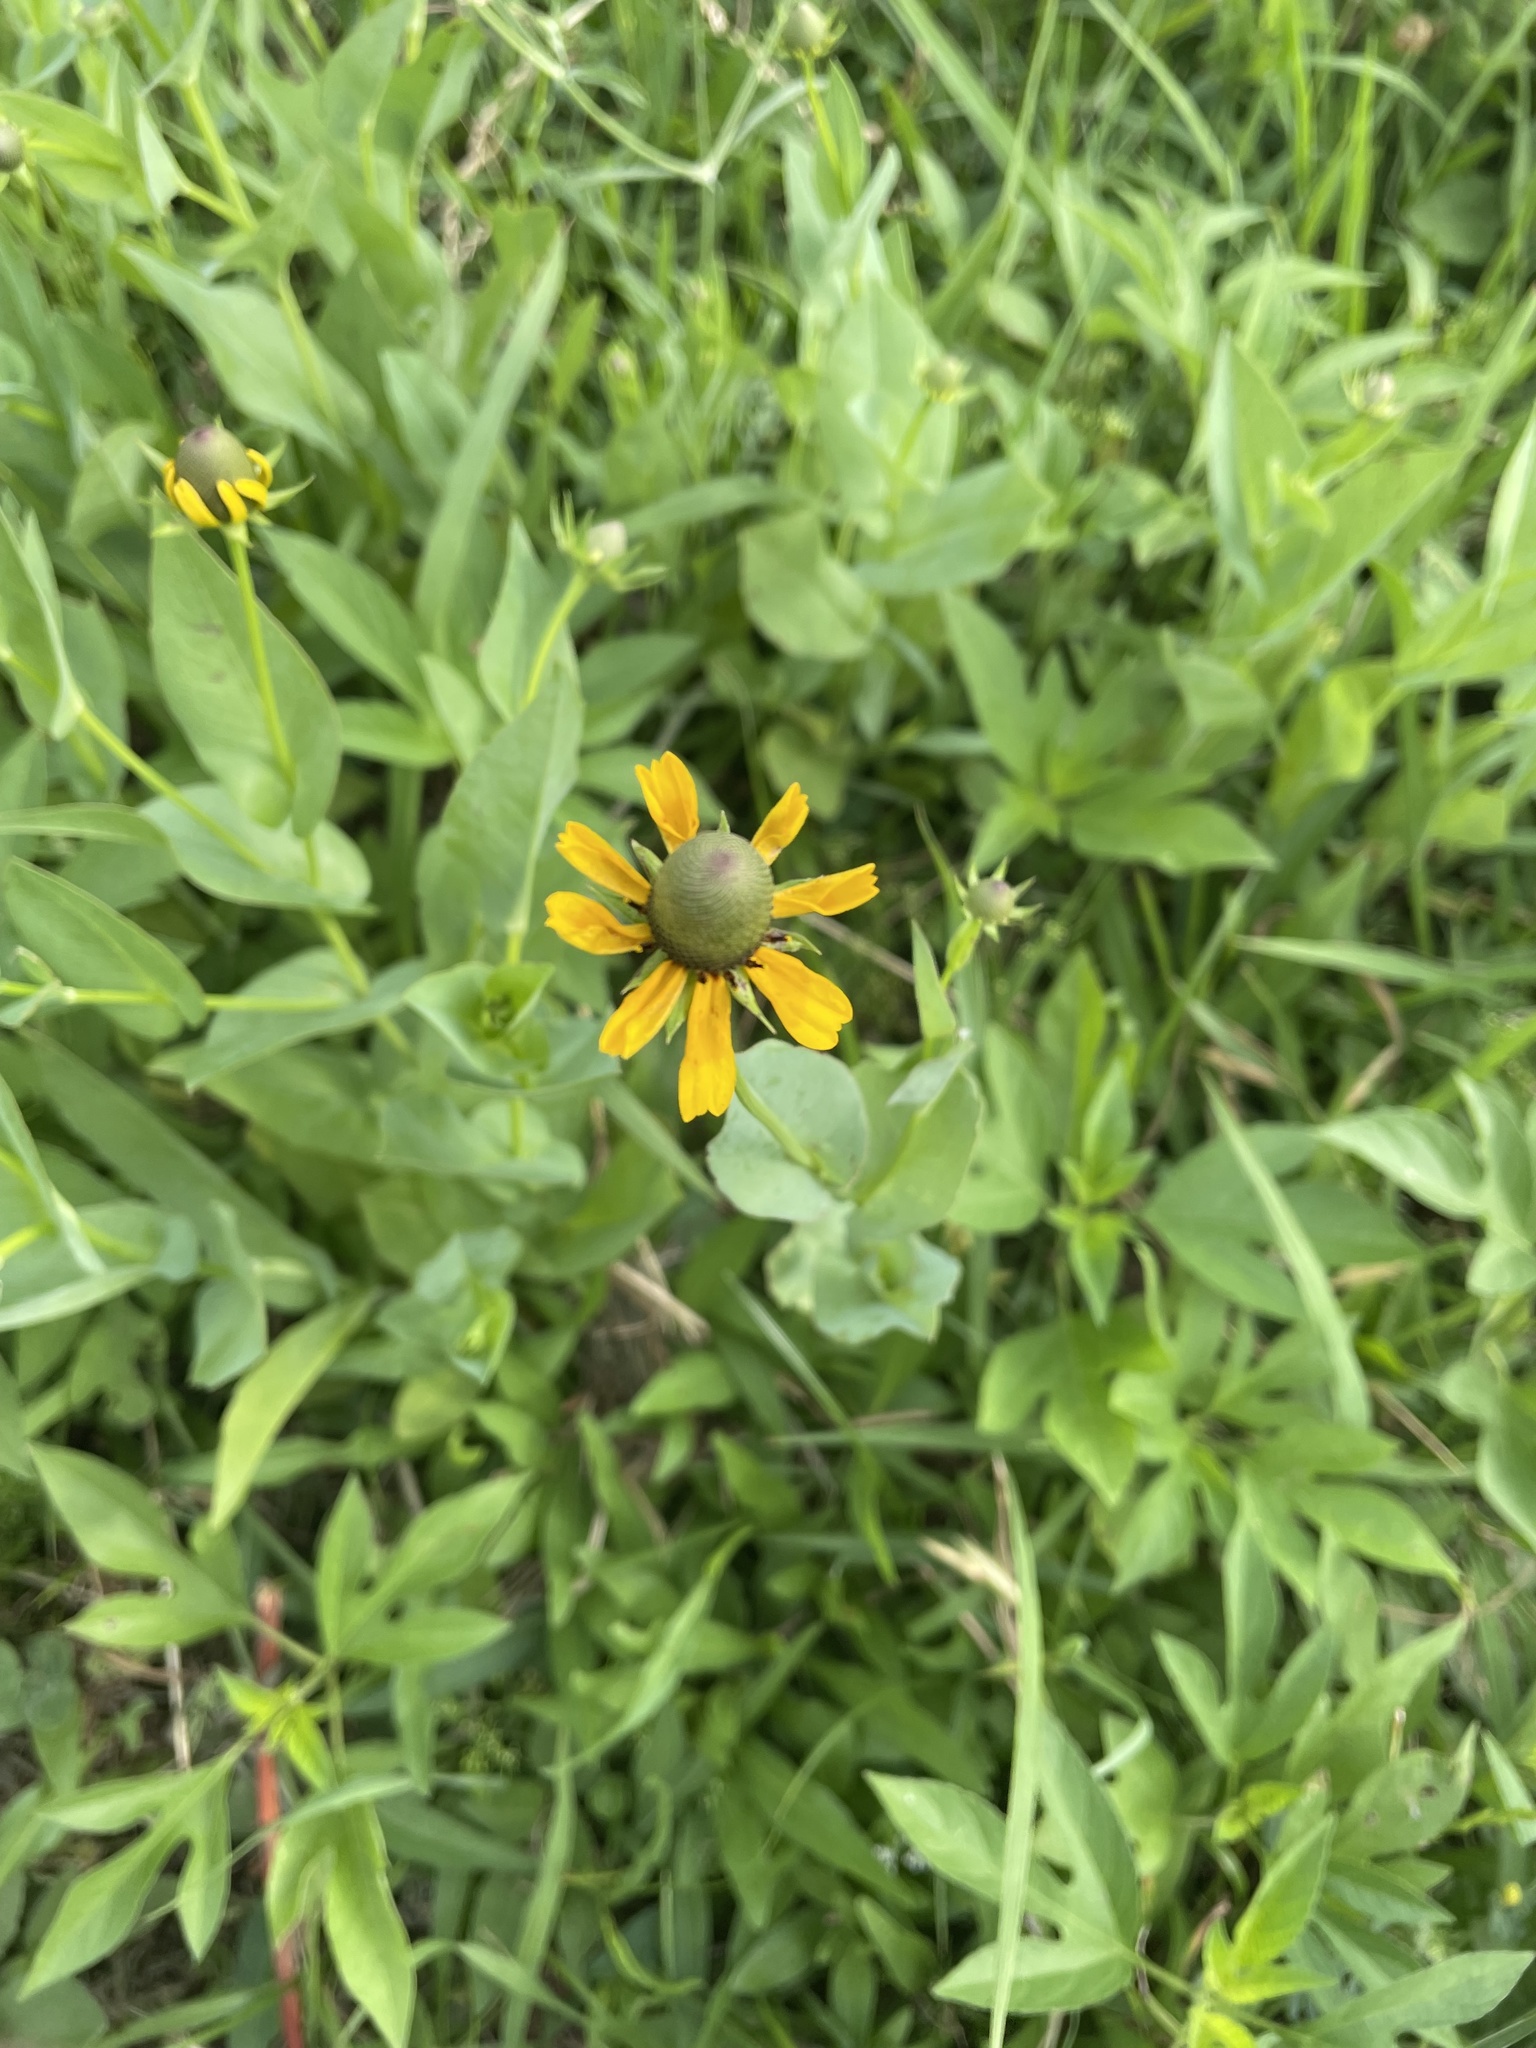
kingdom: Plantae
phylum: Tracheophyta
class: Magnoliopsida
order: Asterales
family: Asteraceae
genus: Rudbeckia
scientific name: Rudbeckia amplexicaulis
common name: Clasping-leaf coneflower
